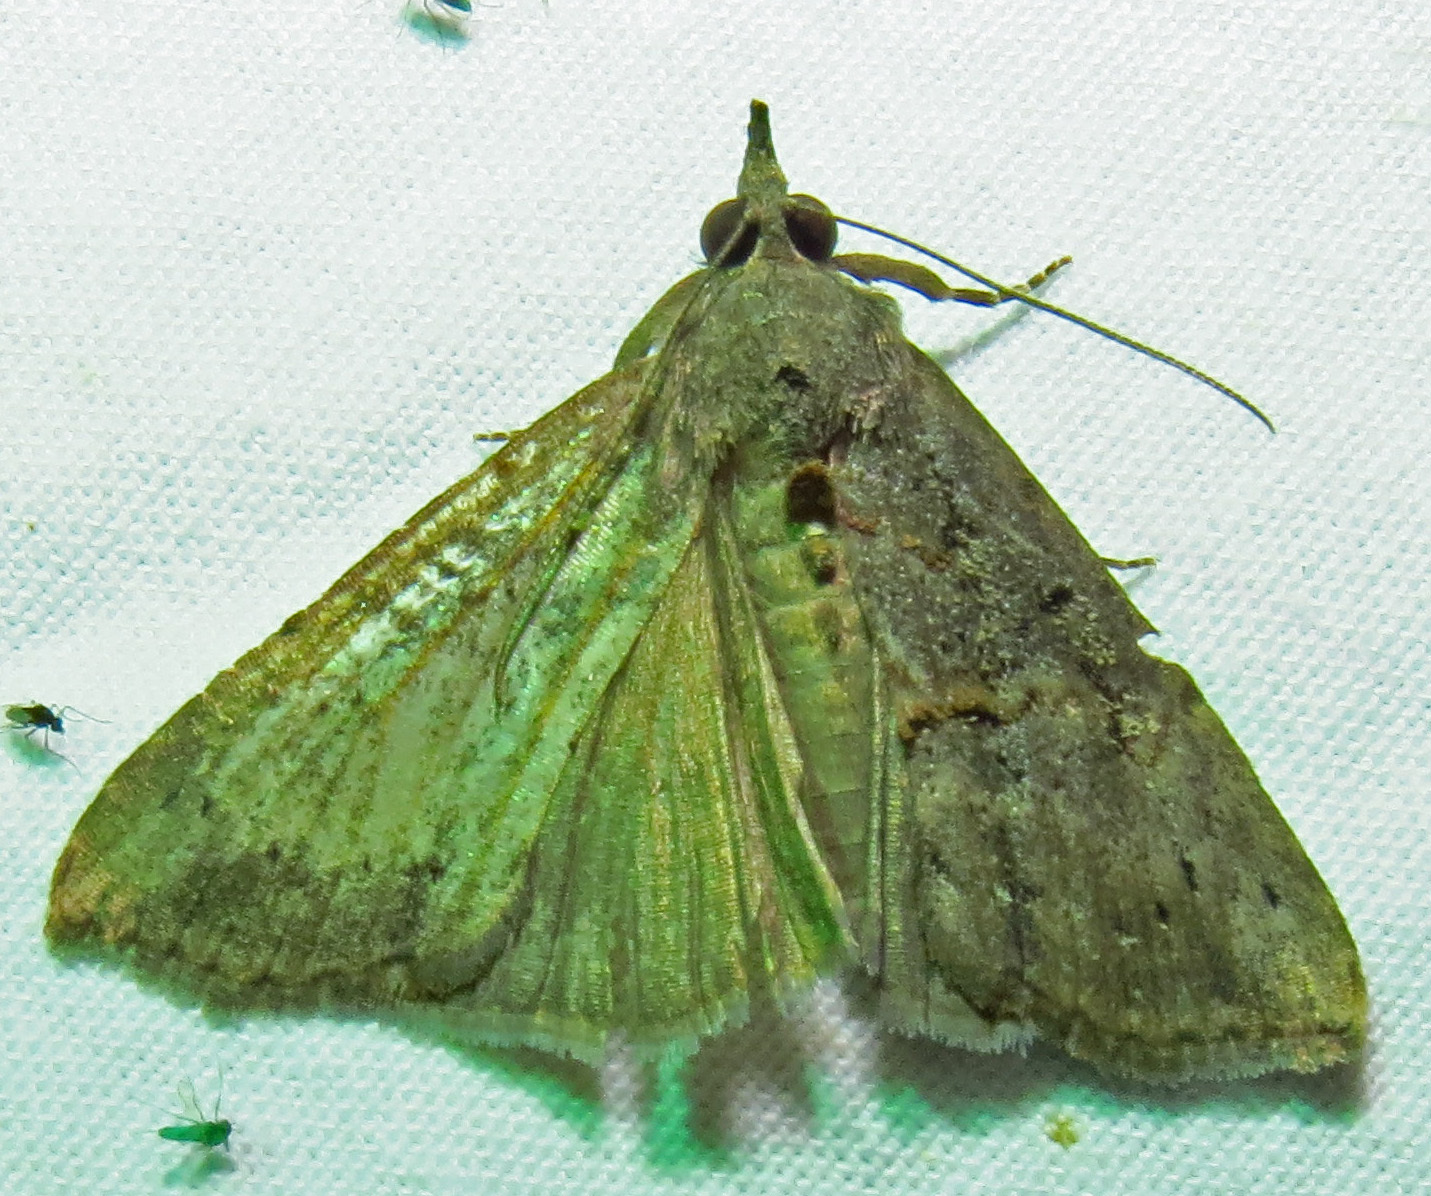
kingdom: Animalia
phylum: Arthropoda
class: Insecta
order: Lepidoptera
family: Erebidae
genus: Hypena
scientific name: Hypena scabra
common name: Green cloverworm
